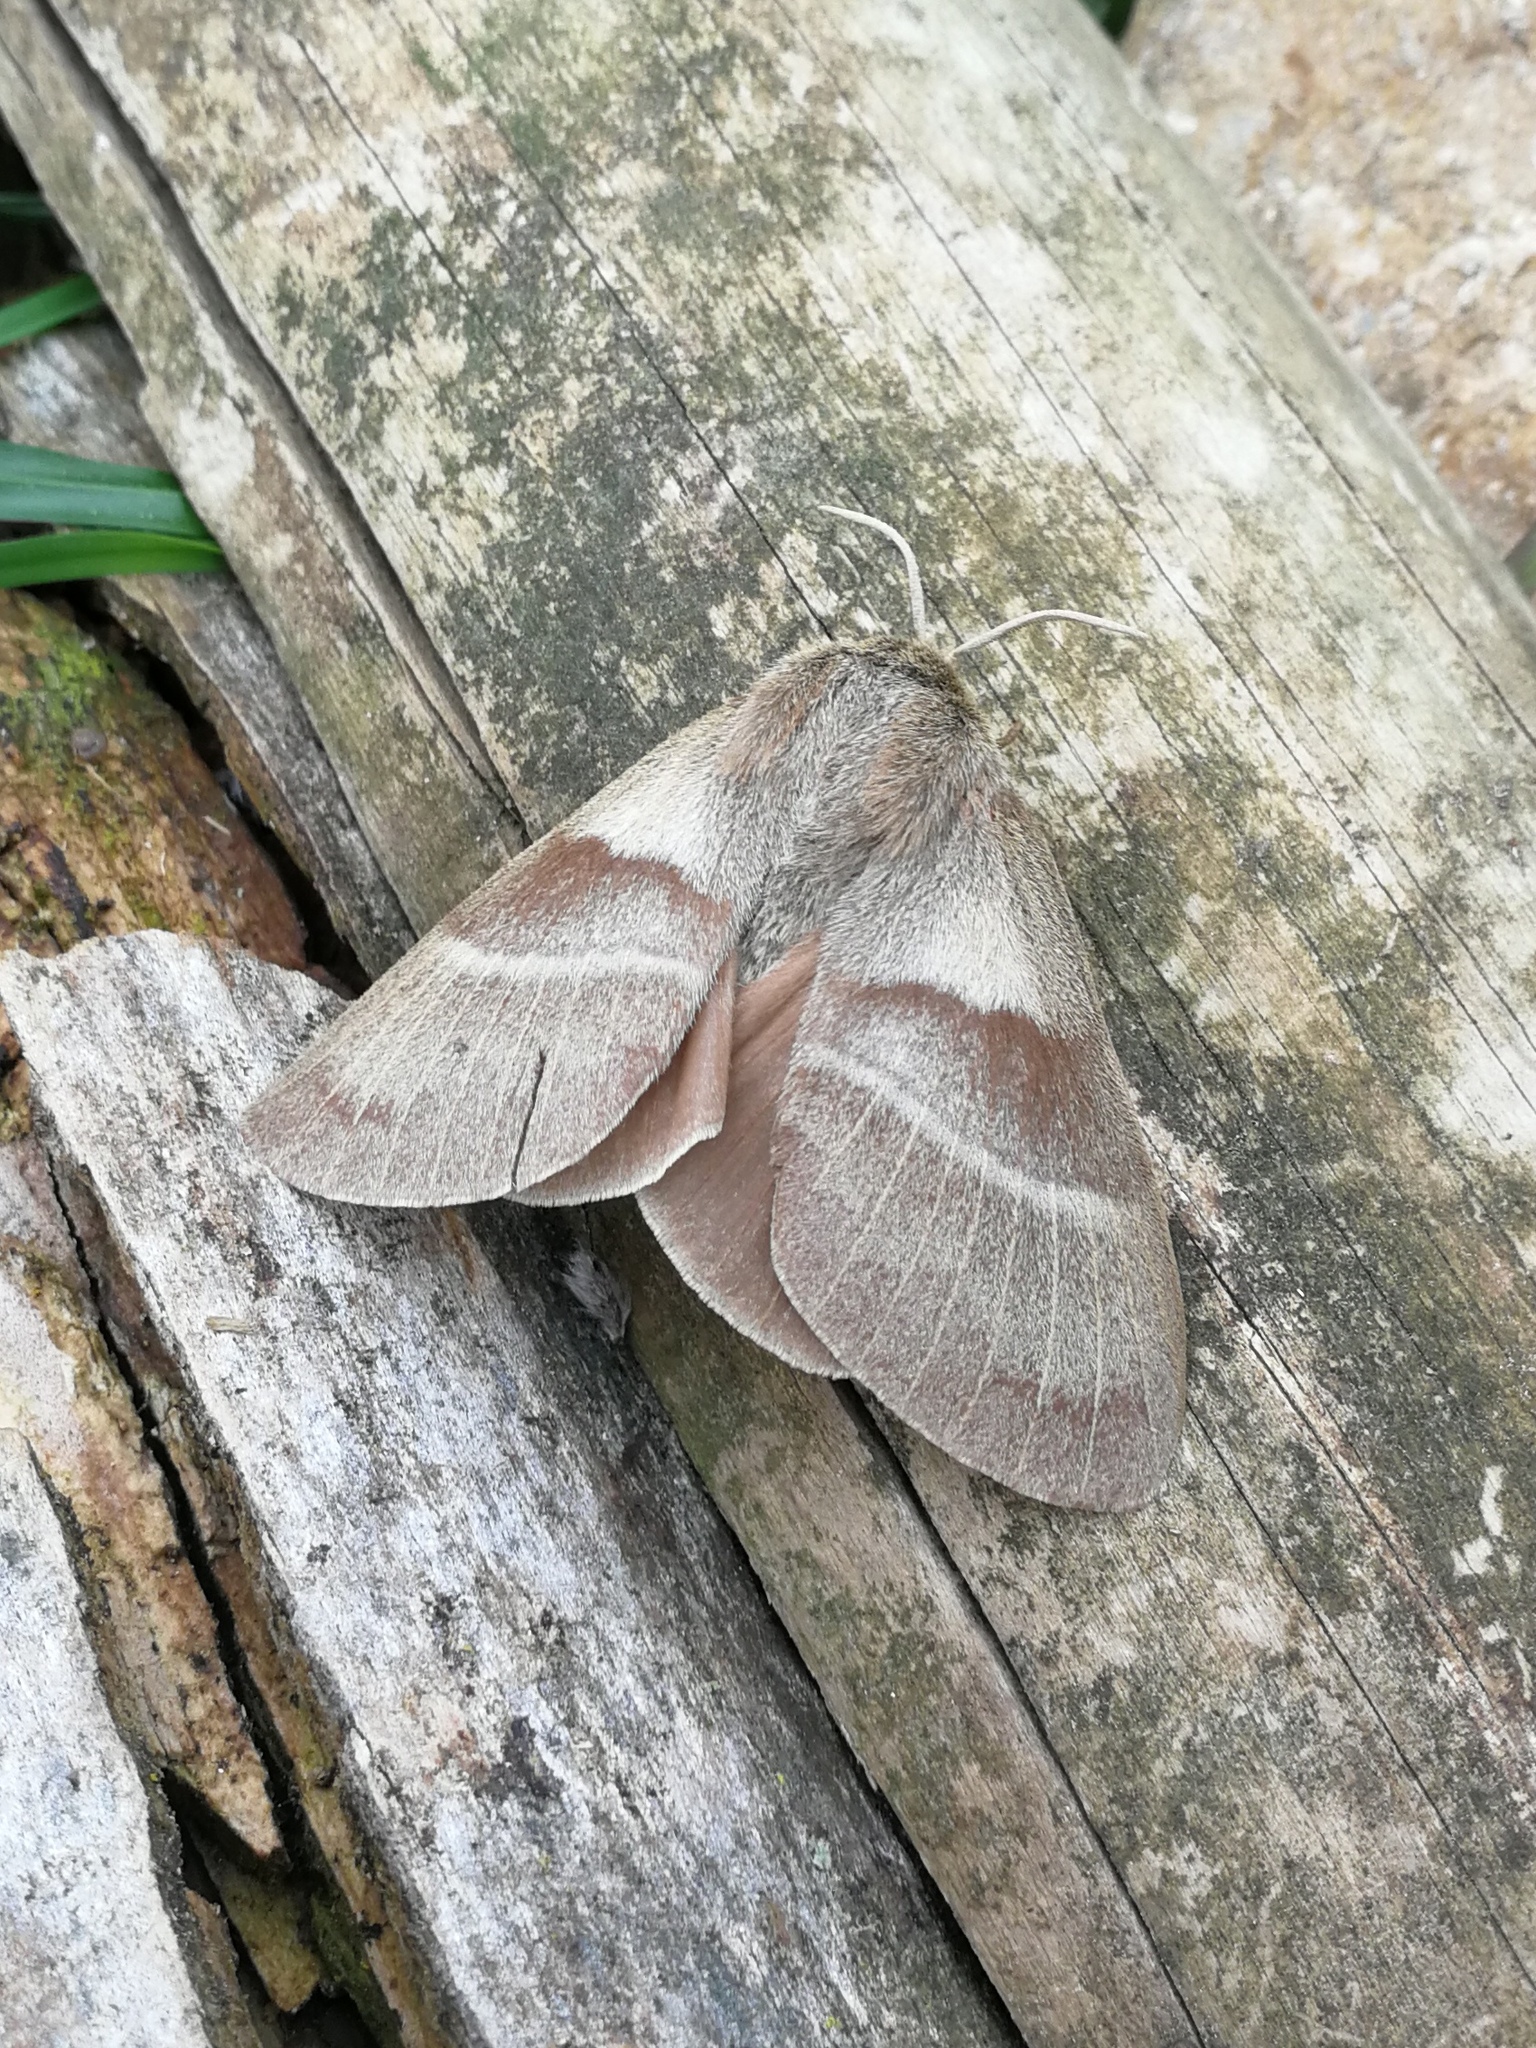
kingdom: Animalia
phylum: Arthropoda
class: Insecta
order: Lepidoptera
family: Lasiocampidae
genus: Macrothylacia
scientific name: Macrothylacia rubi
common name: Fox moth
